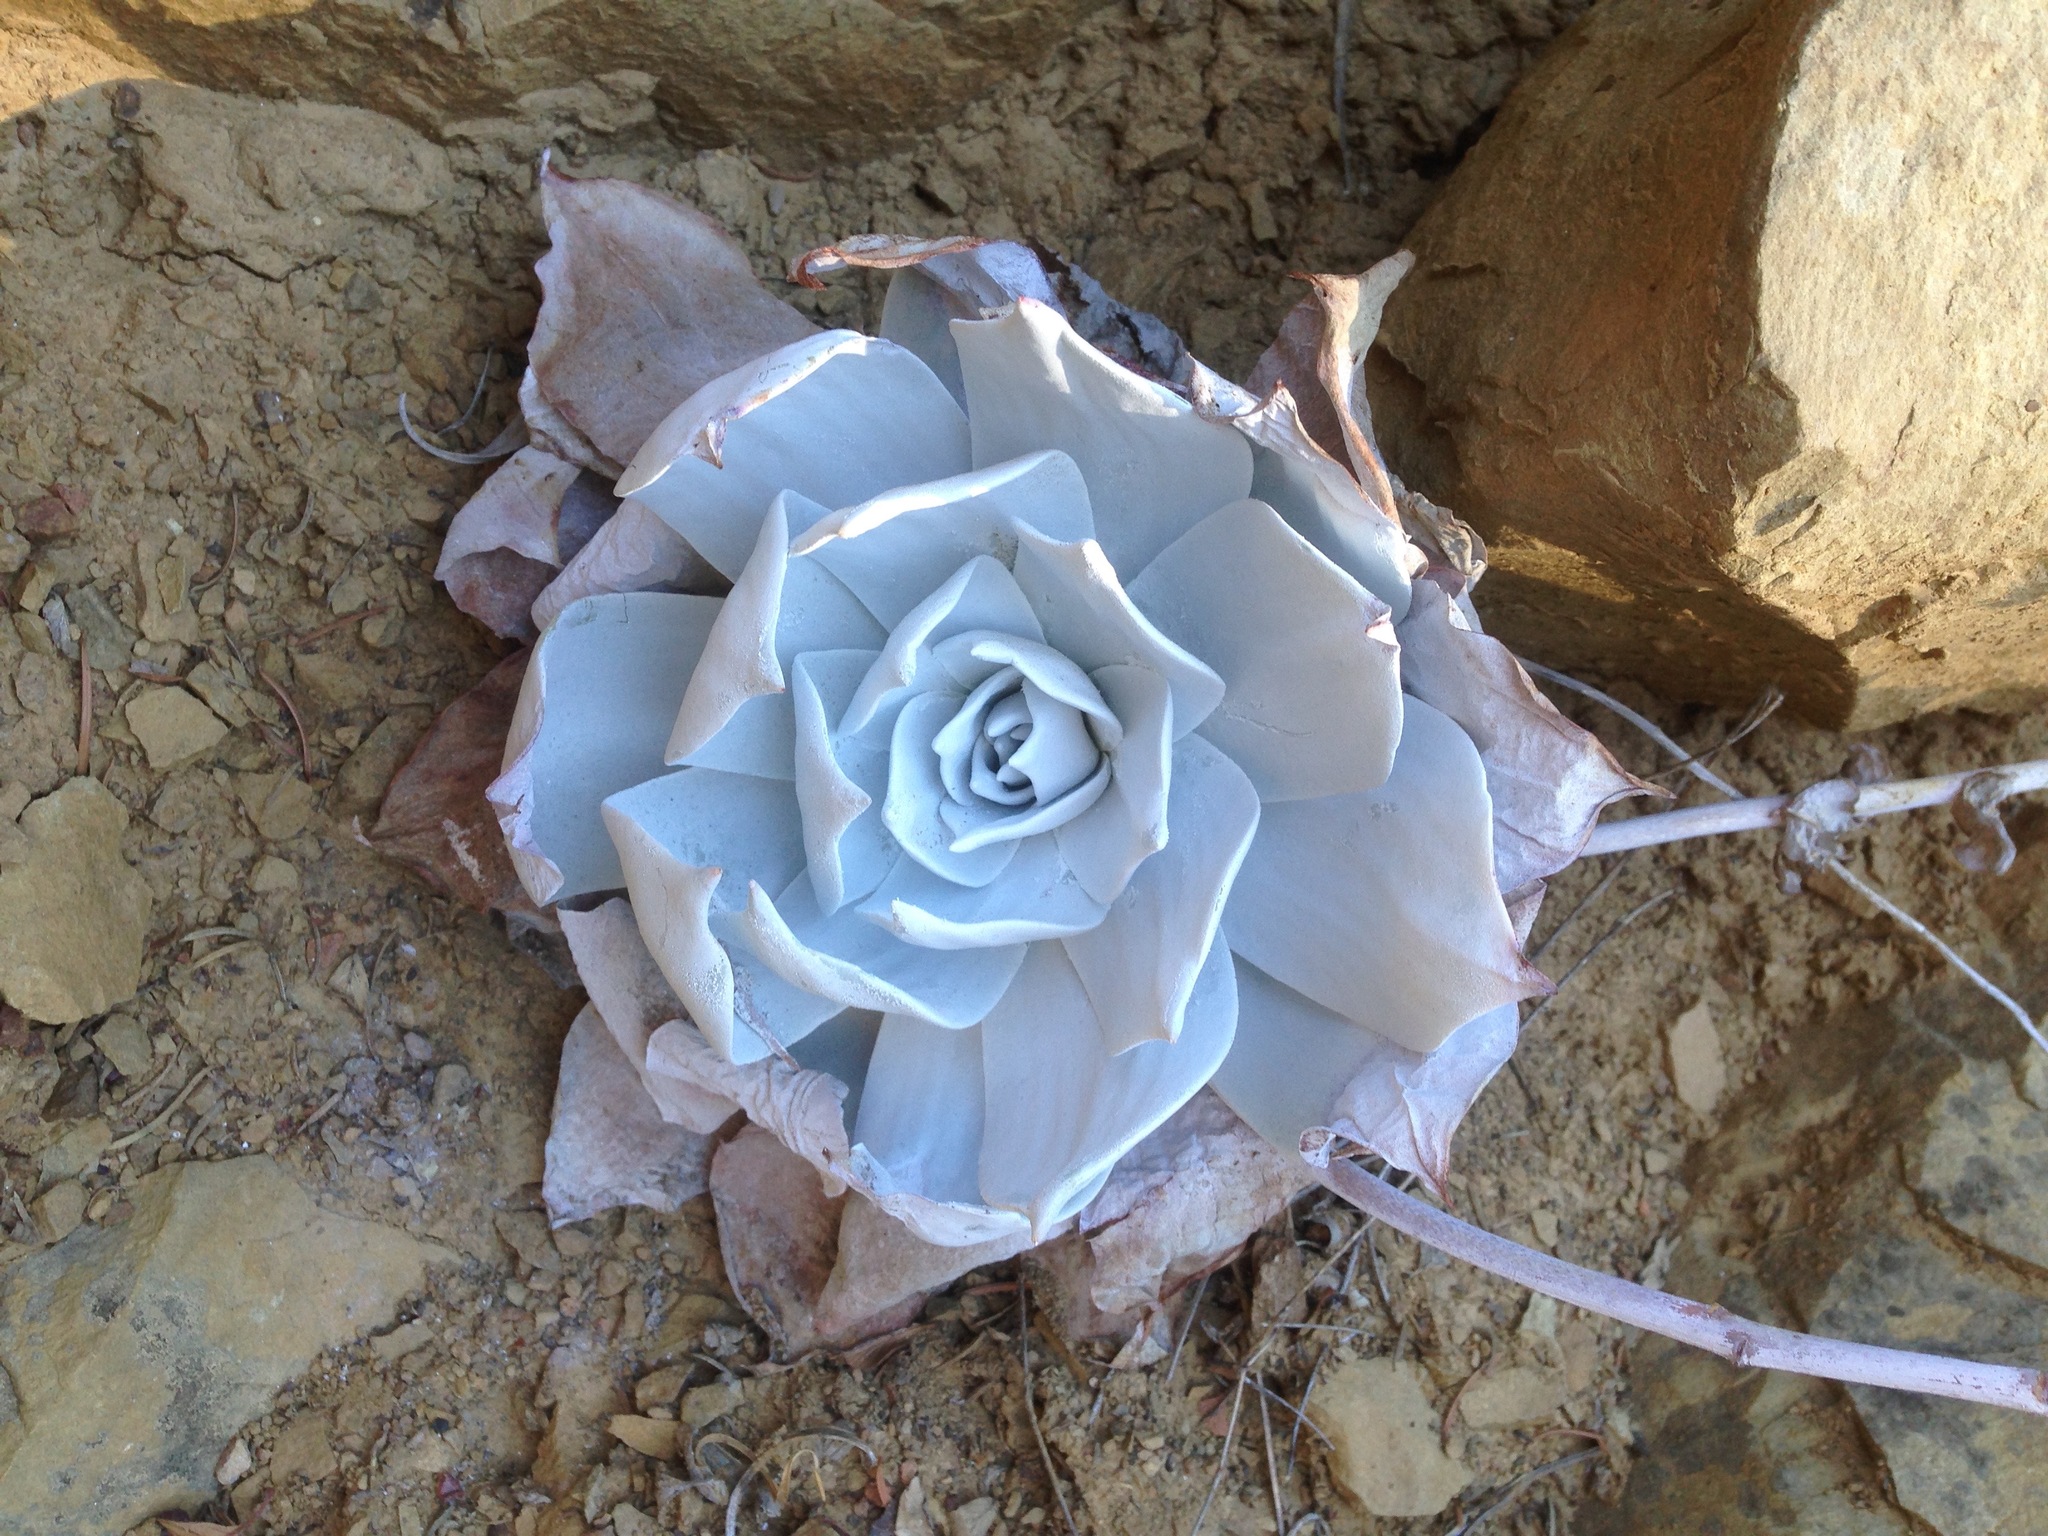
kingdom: Plantae
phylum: Tracheophyta
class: Magnoliopsida
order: Saxifragales
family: Crassulaceae
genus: Dudleya
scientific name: Dudleya pulverulenta
